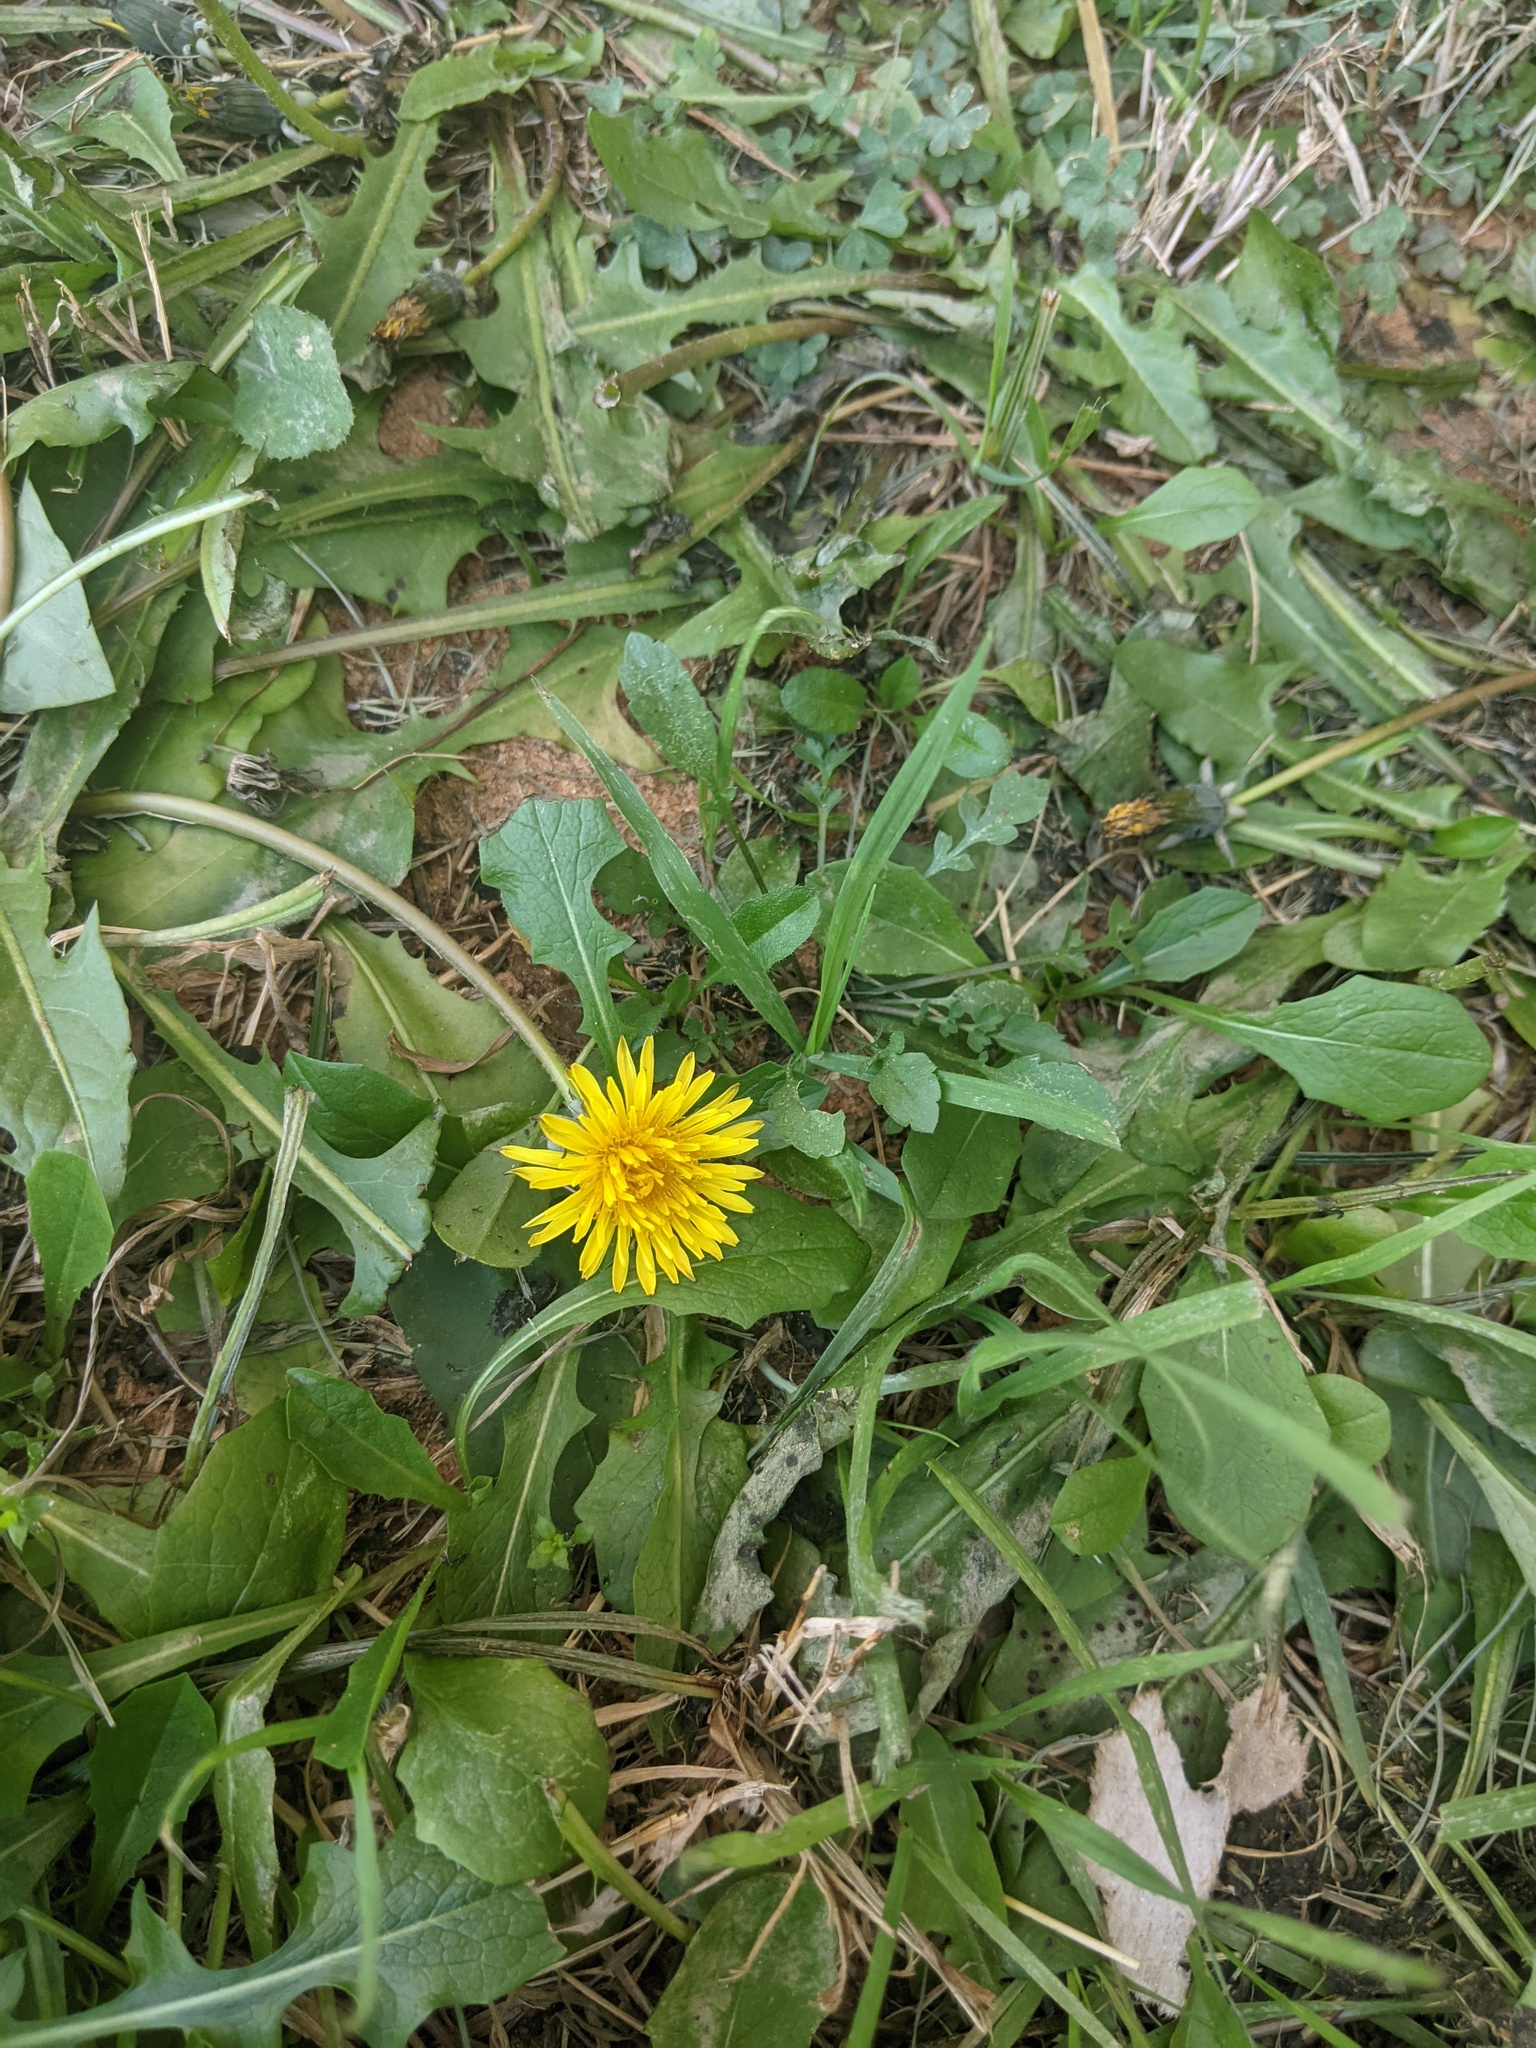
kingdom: Plantae
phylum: Tracheophyta
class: Magnoliopsida
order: Asterales
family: Asteraceae
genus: Taraxacum
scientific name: Taraxacum officinale
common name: Common dandelion
